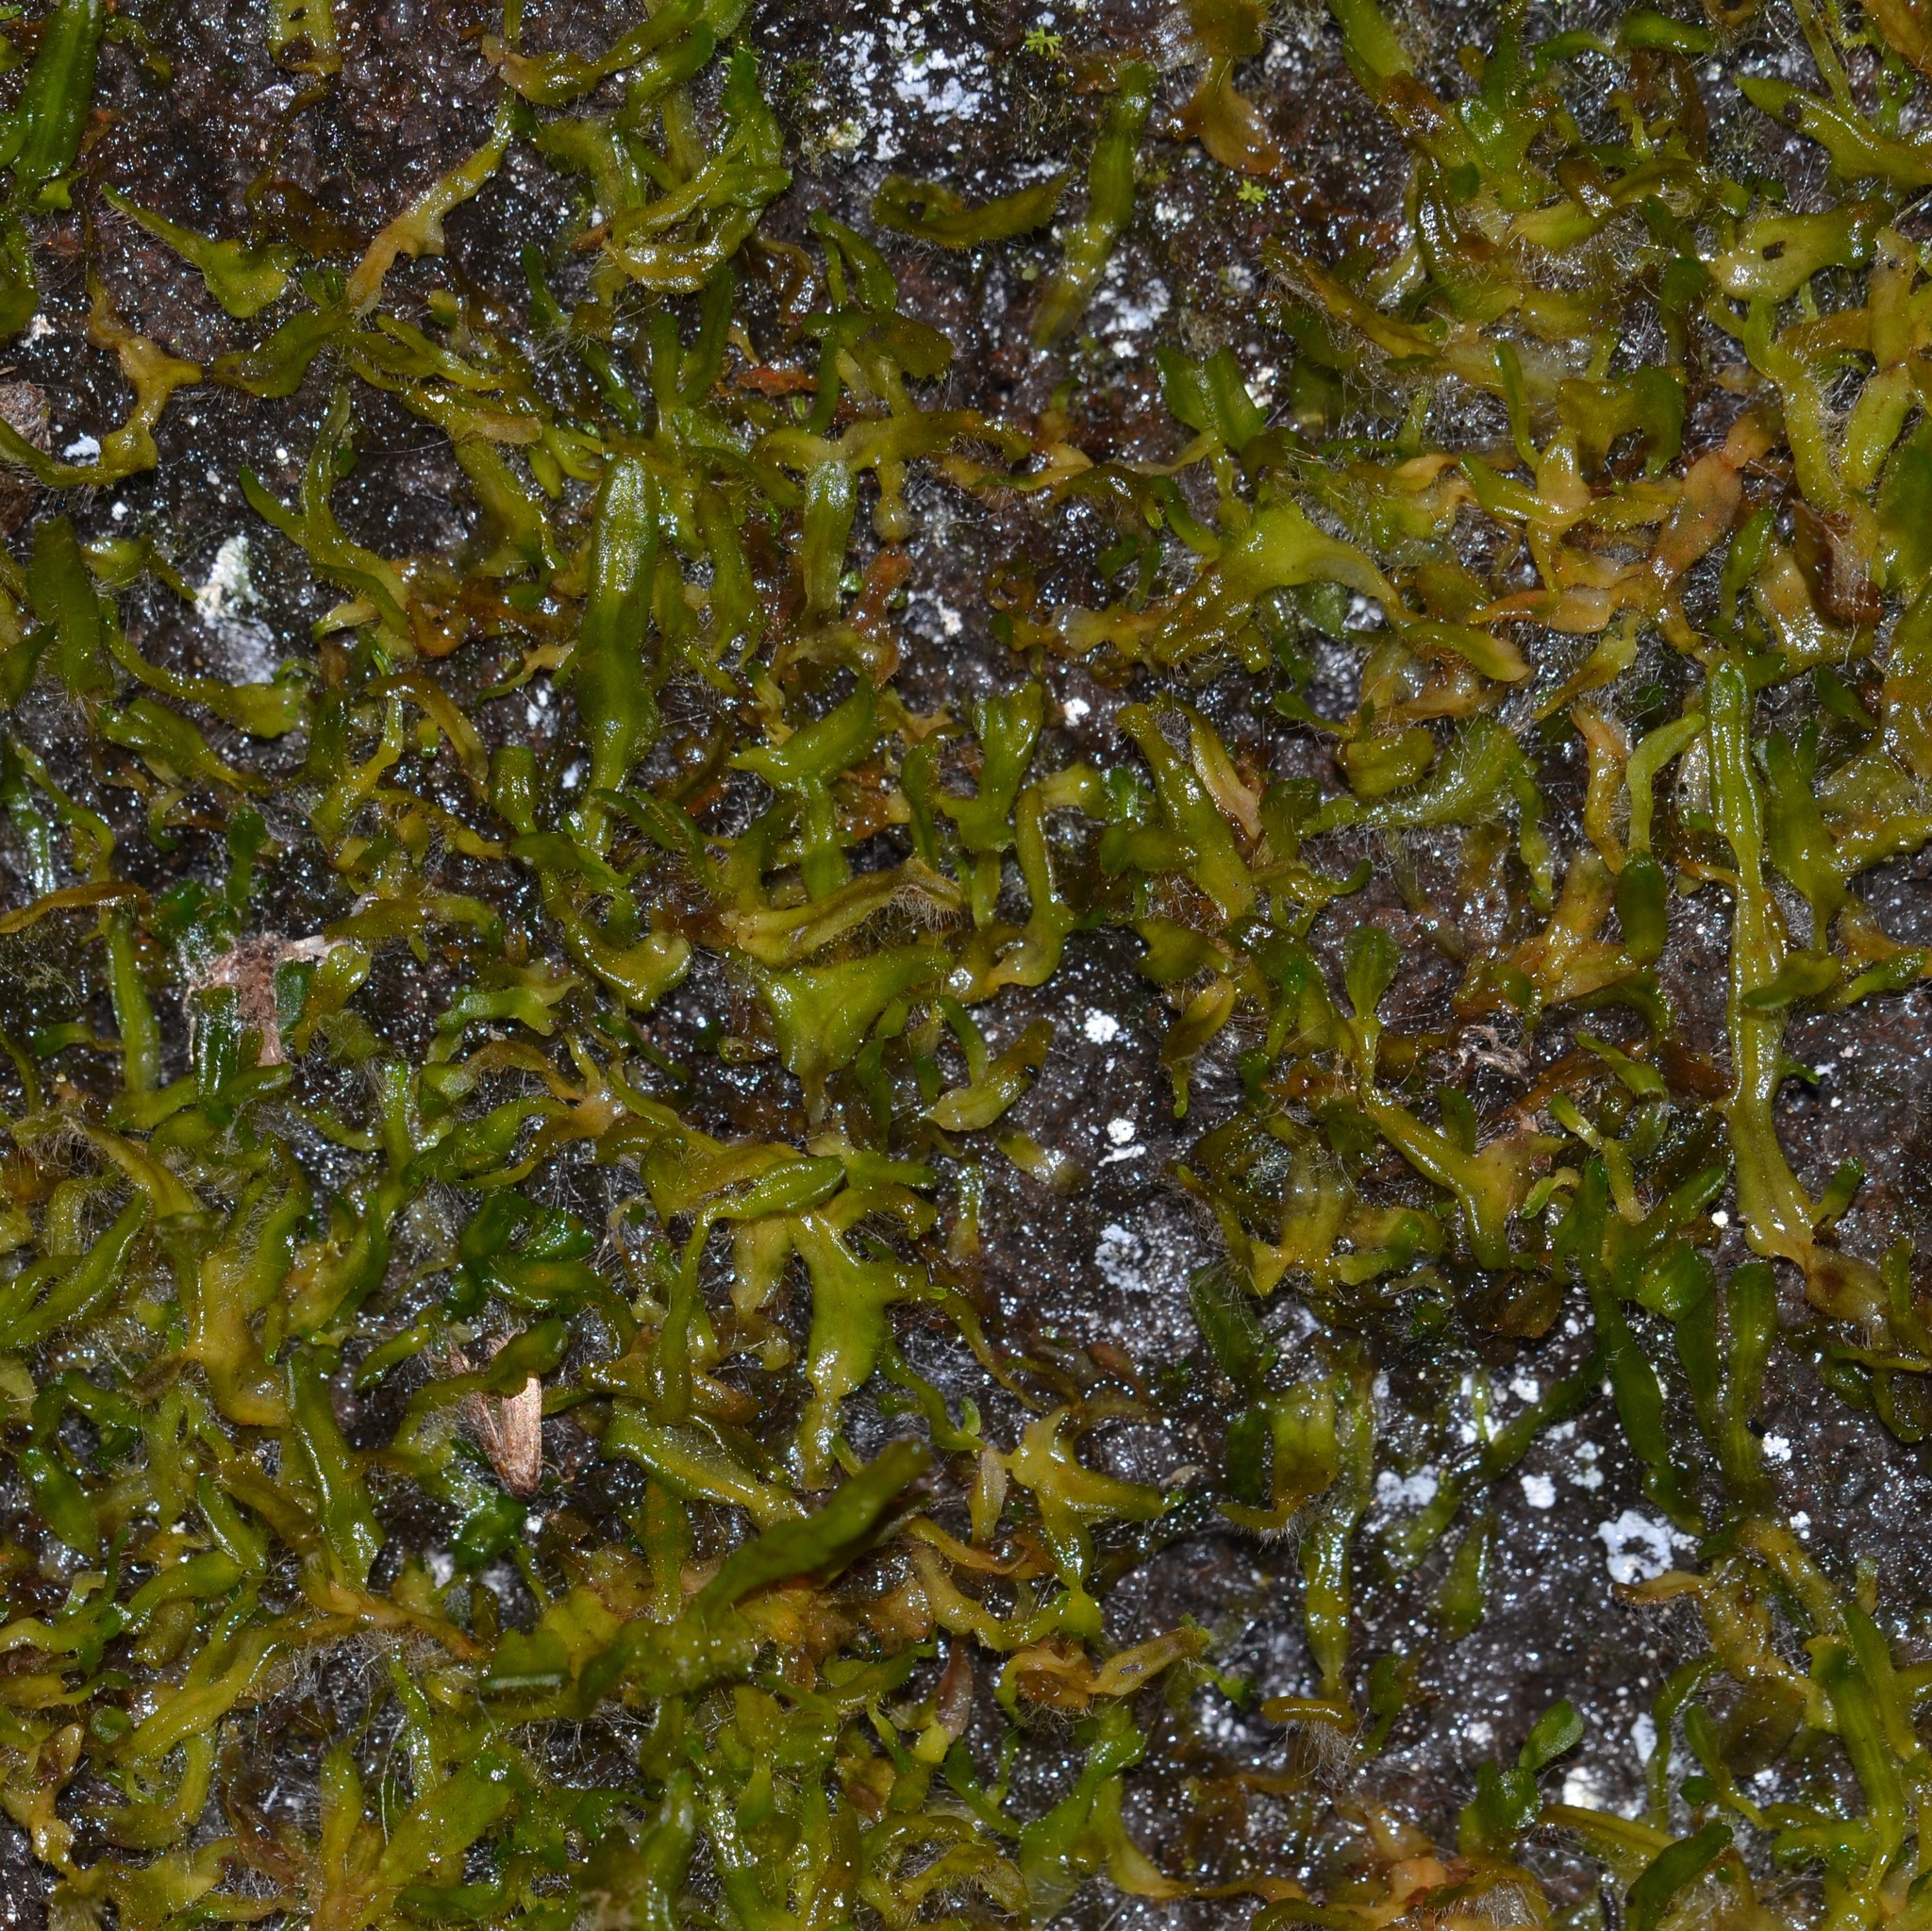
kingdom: Plantae
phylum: Marchantiophyta
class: Marchantiopsida
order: Marchantiales
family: Dumortieraceae
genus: Dumortiera
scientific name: Dumortiera hirsuta
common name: Dumortier's liverwort
